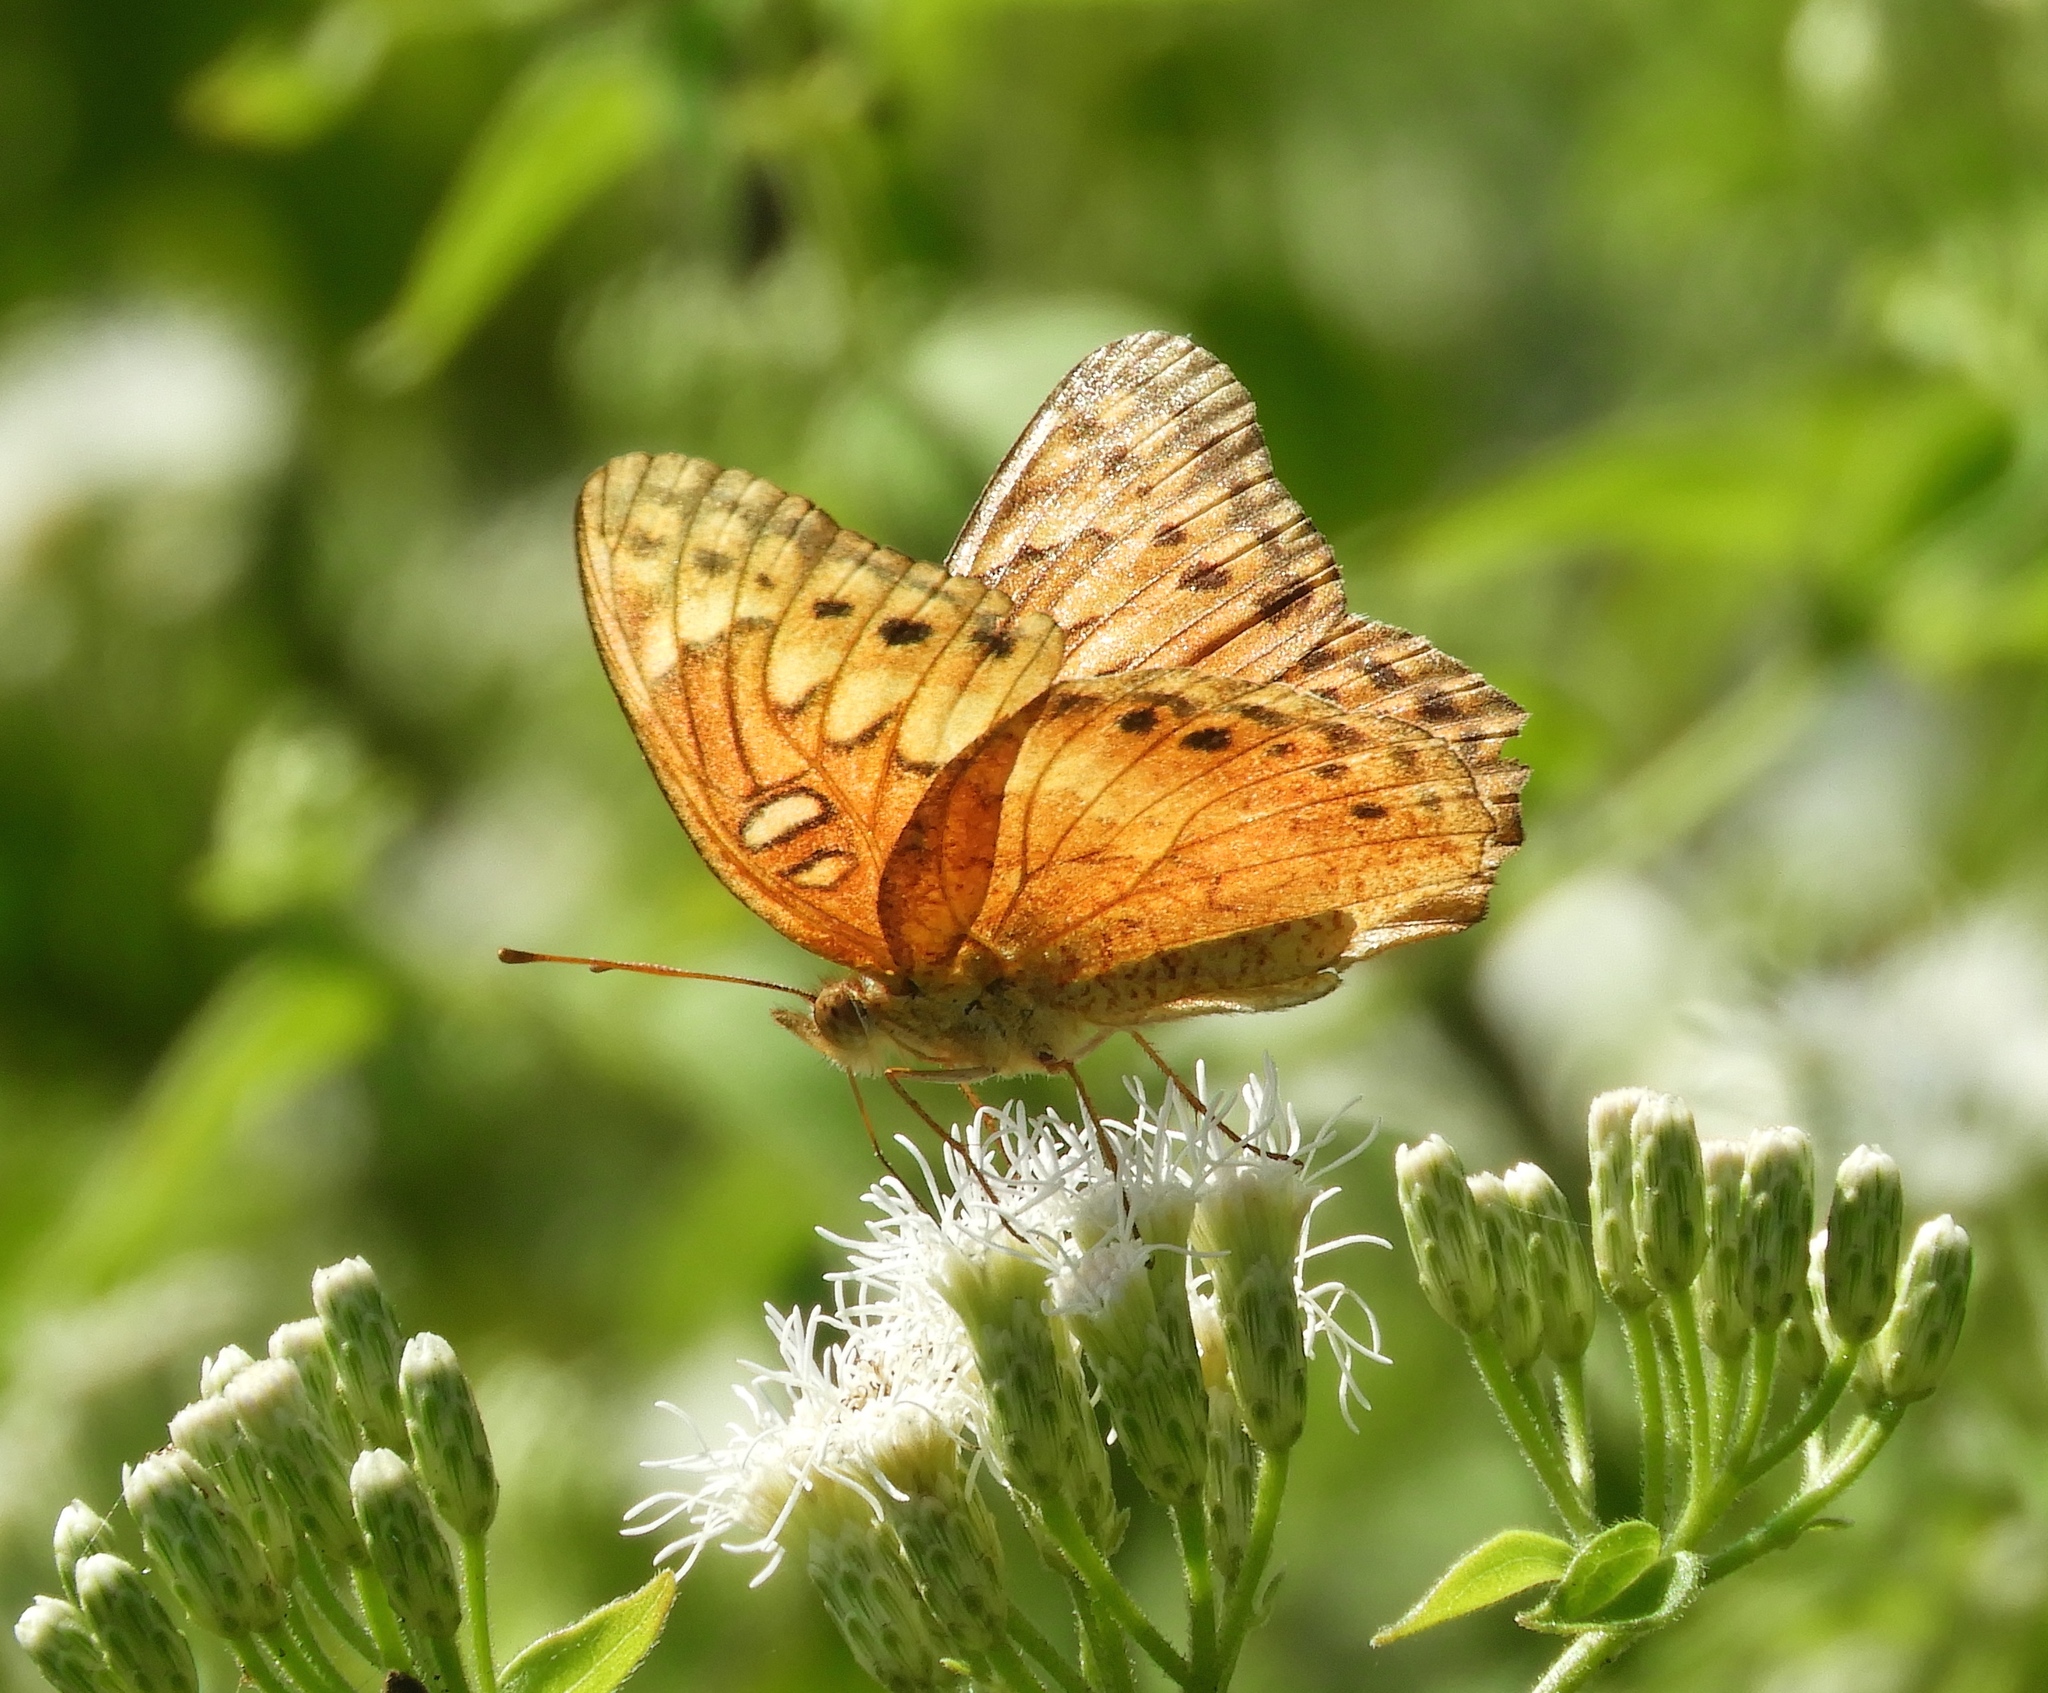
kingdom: Animalia
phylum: Arthropoda
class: Insecta
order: Lepidoptera
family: Nymphalidae
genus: Euptoieta
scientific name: Euptoieta hegesia
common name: Mexican fritillary
